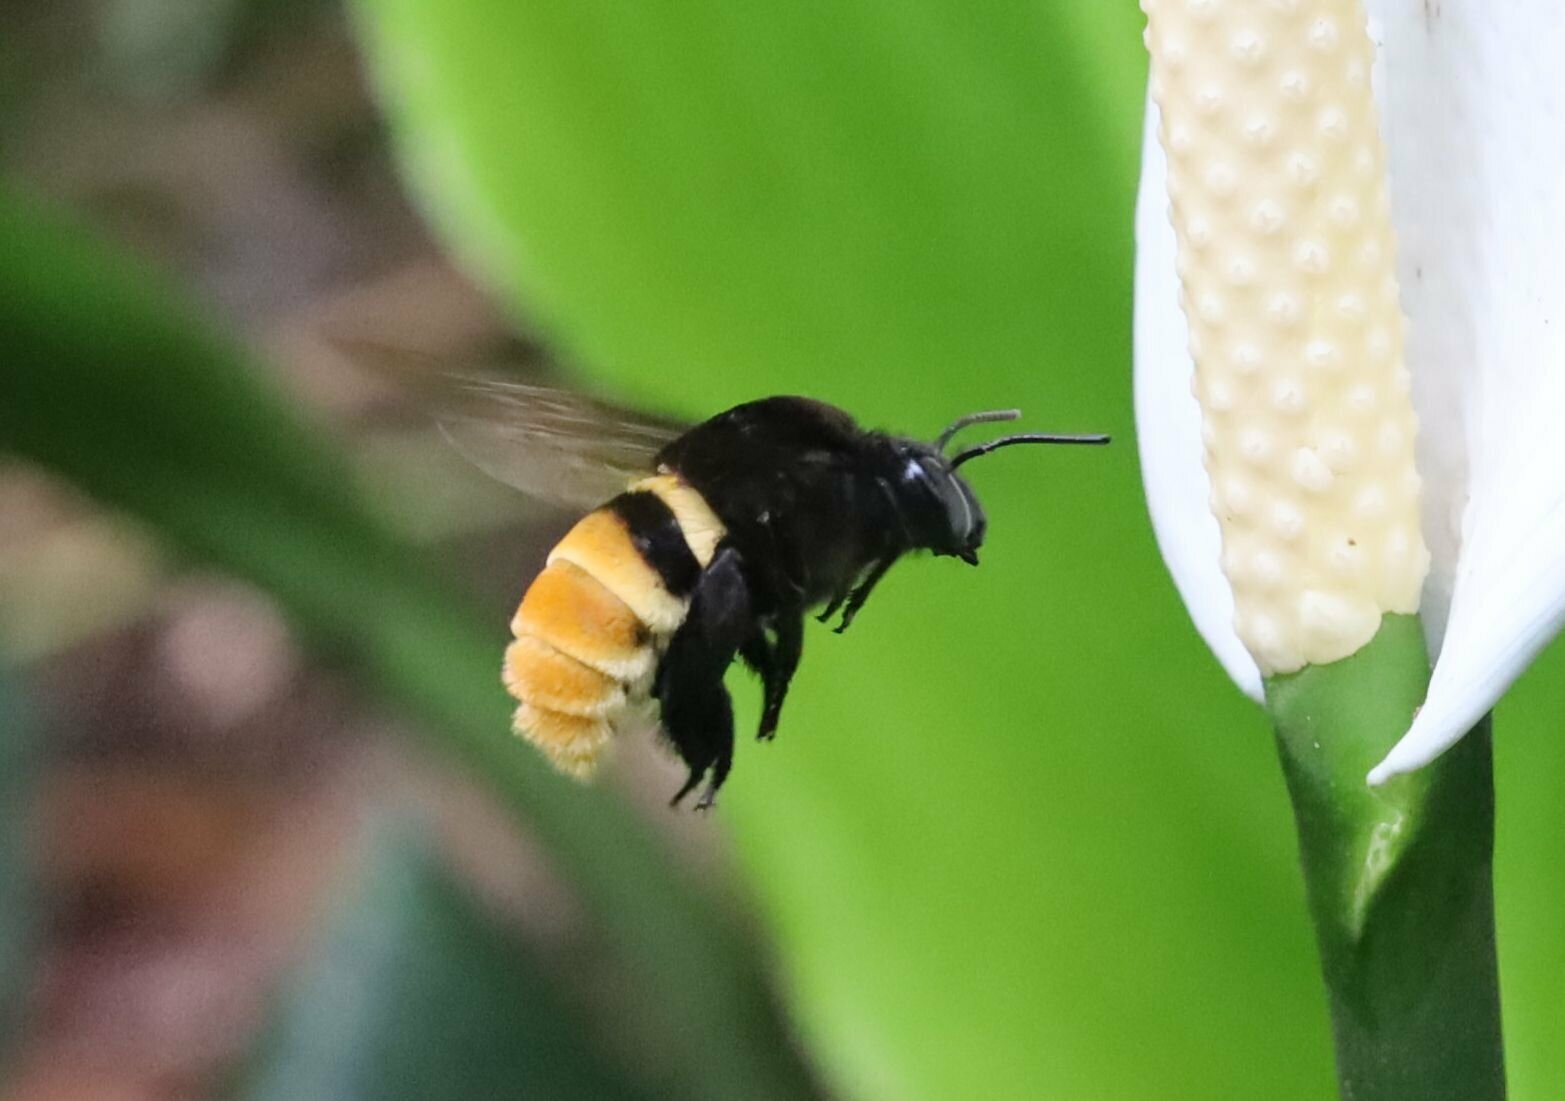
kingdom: Animalia
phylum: Arthropoda
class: Insecta
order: Hymenoptera
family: Apidae
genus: Eulaema
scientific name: Eulaema cingulata
